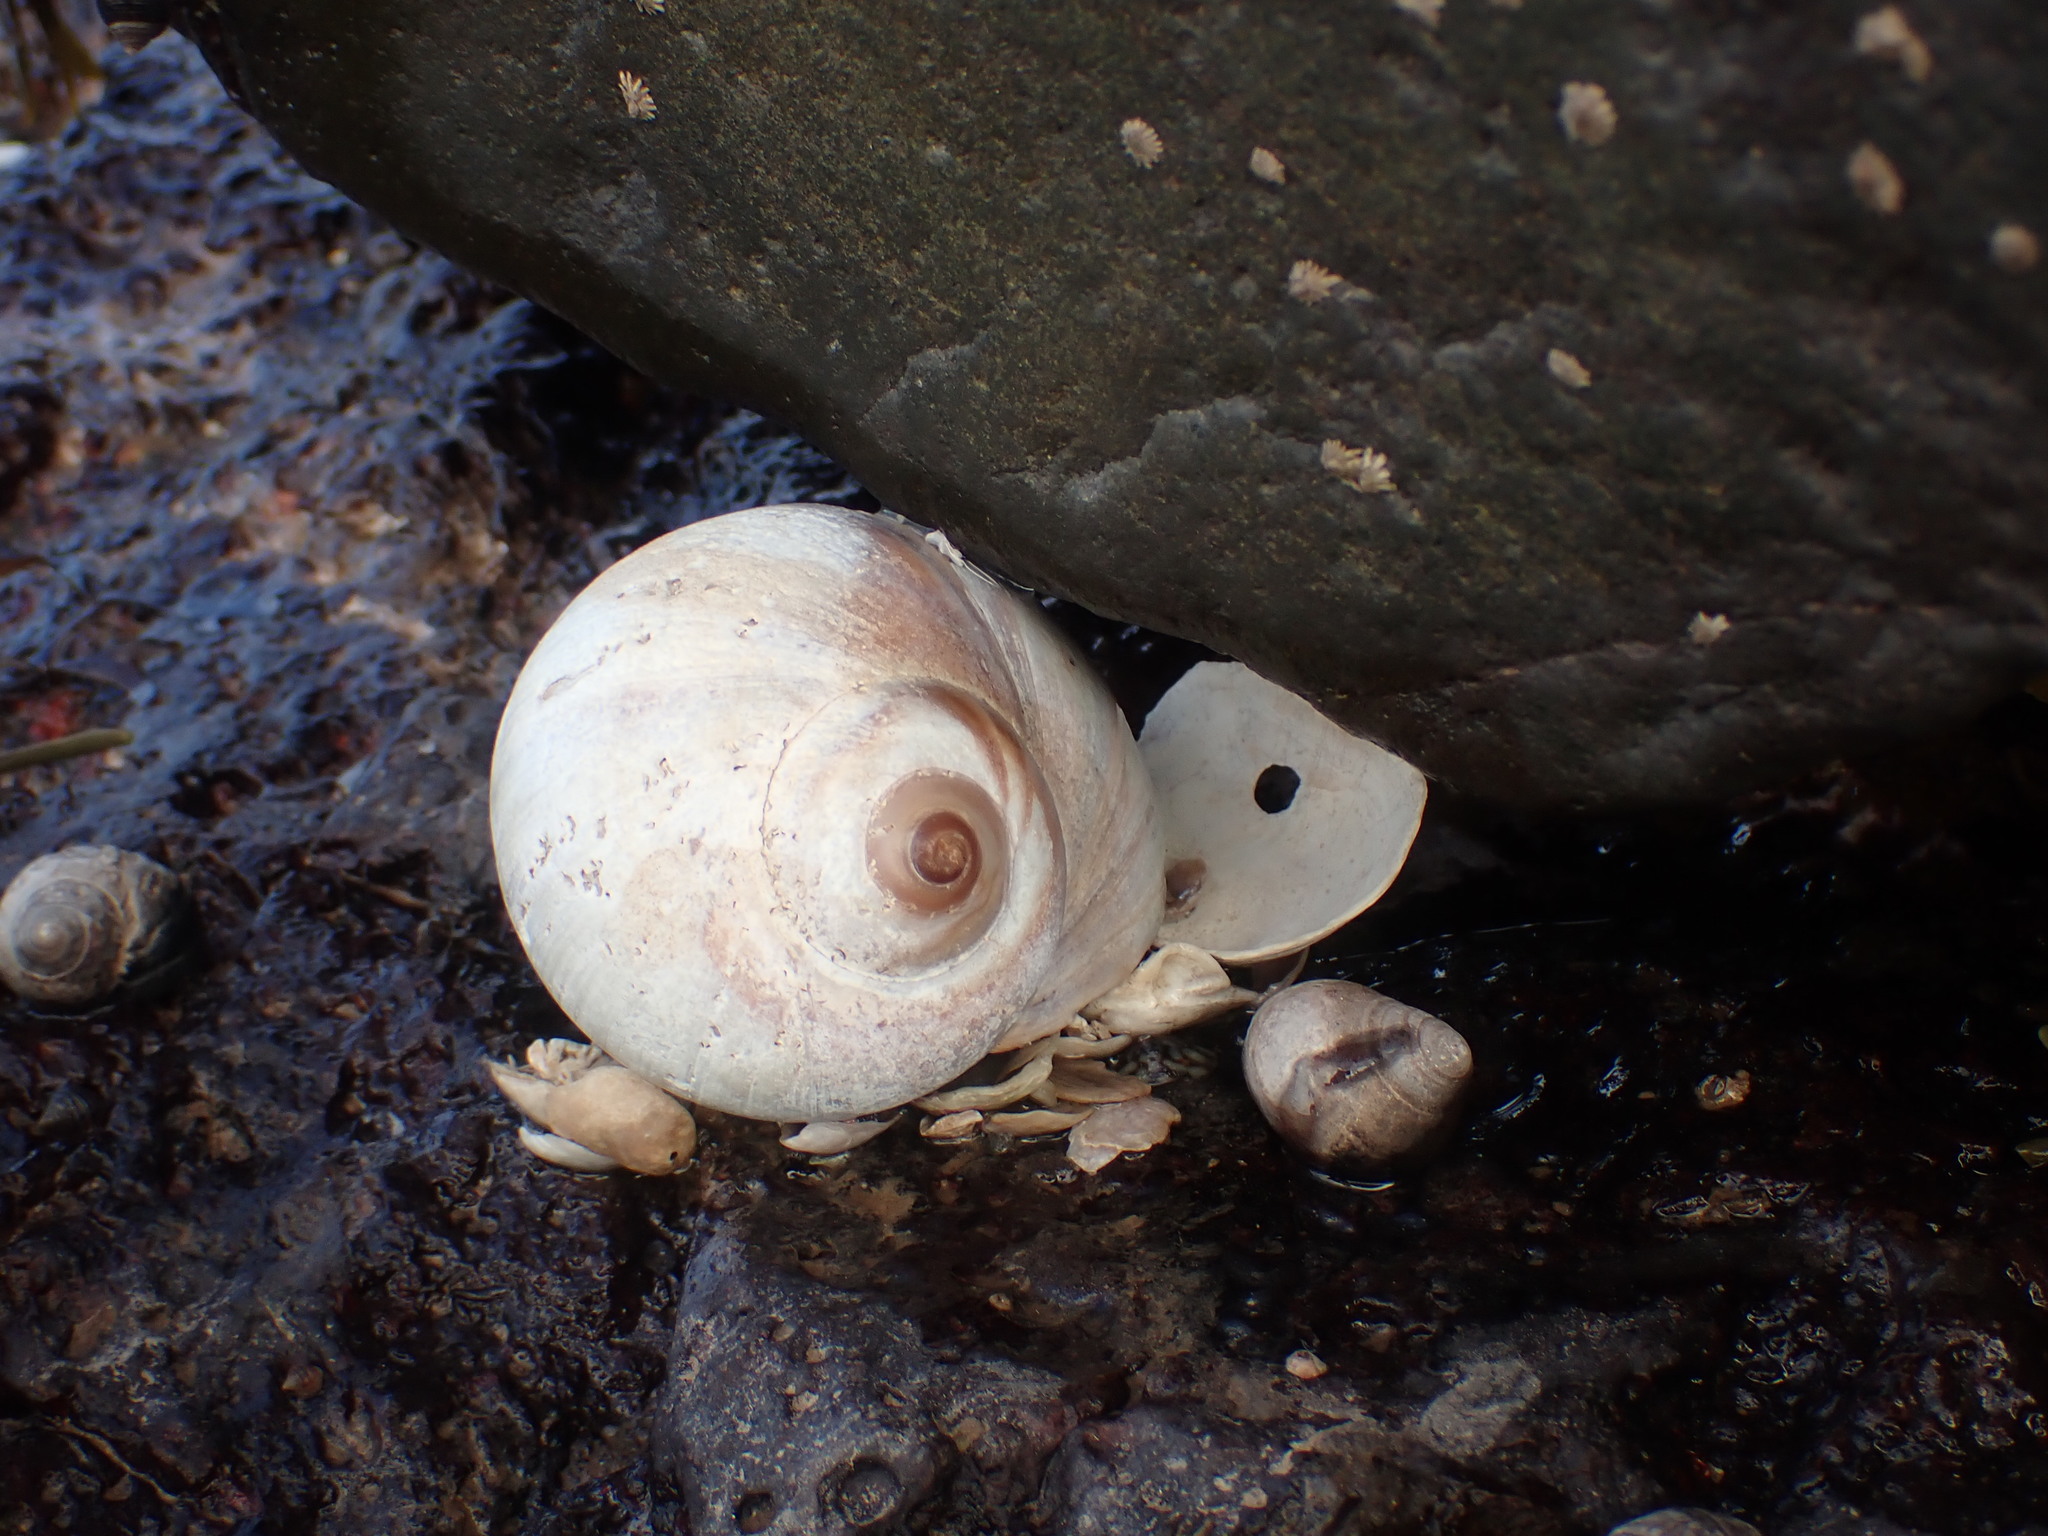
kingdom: Animalia
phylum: Mollusca
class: Gastropoda
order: Littorinimorpha
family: Naticidae
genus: Euspira
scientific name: Euspira heros
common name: Common northern moonsnail
